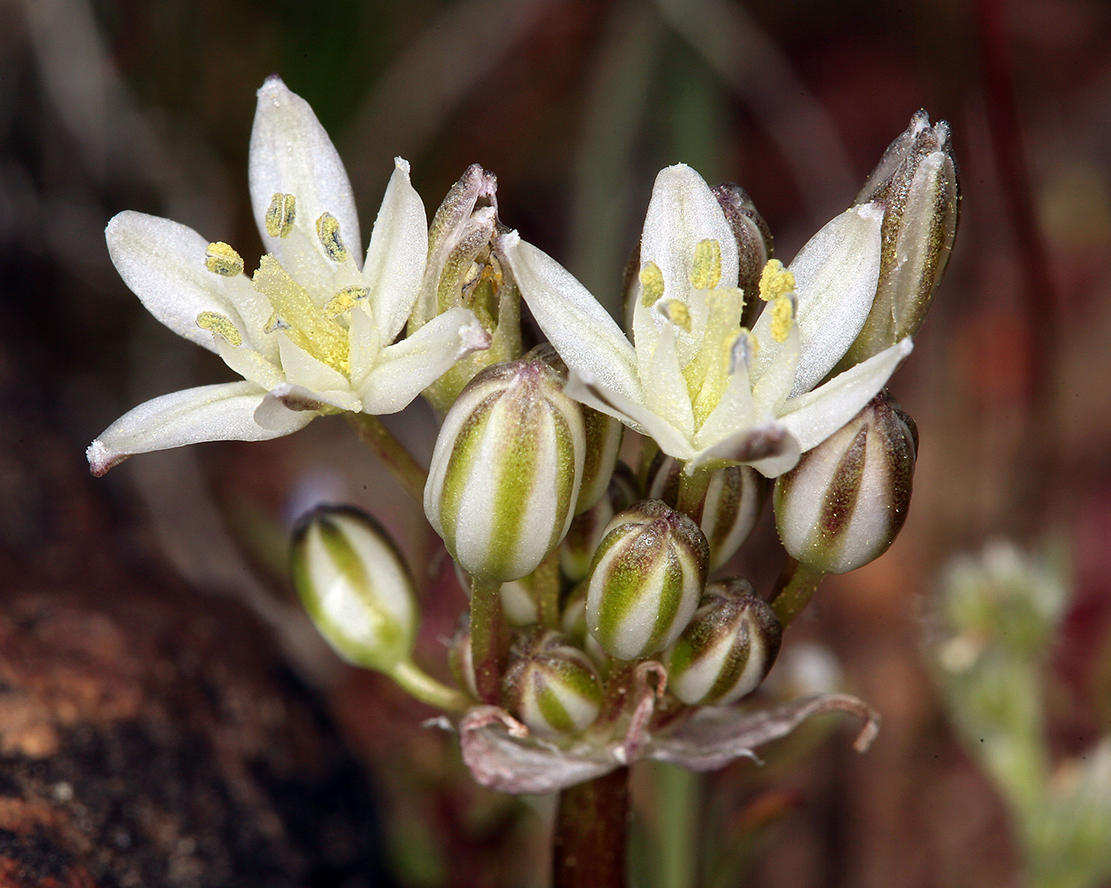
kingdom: Plantae
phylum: Tracheophyta
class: Liliopsida
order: Asparagales
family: Asparagaceae
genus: Muilla
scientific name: Muilla transmontana
